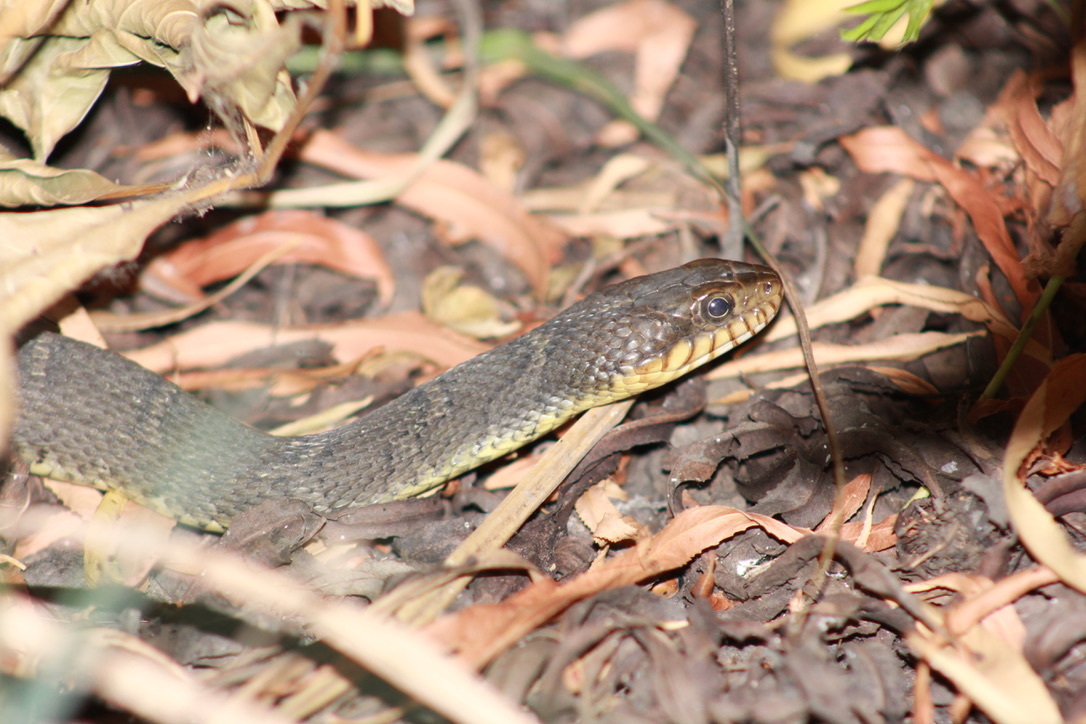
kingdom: Animalia
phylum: Chordata
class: Squamata
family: Colubridae
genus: Nerodia
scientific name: Nerodia erythrogaster
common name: Plainbelly water snake
